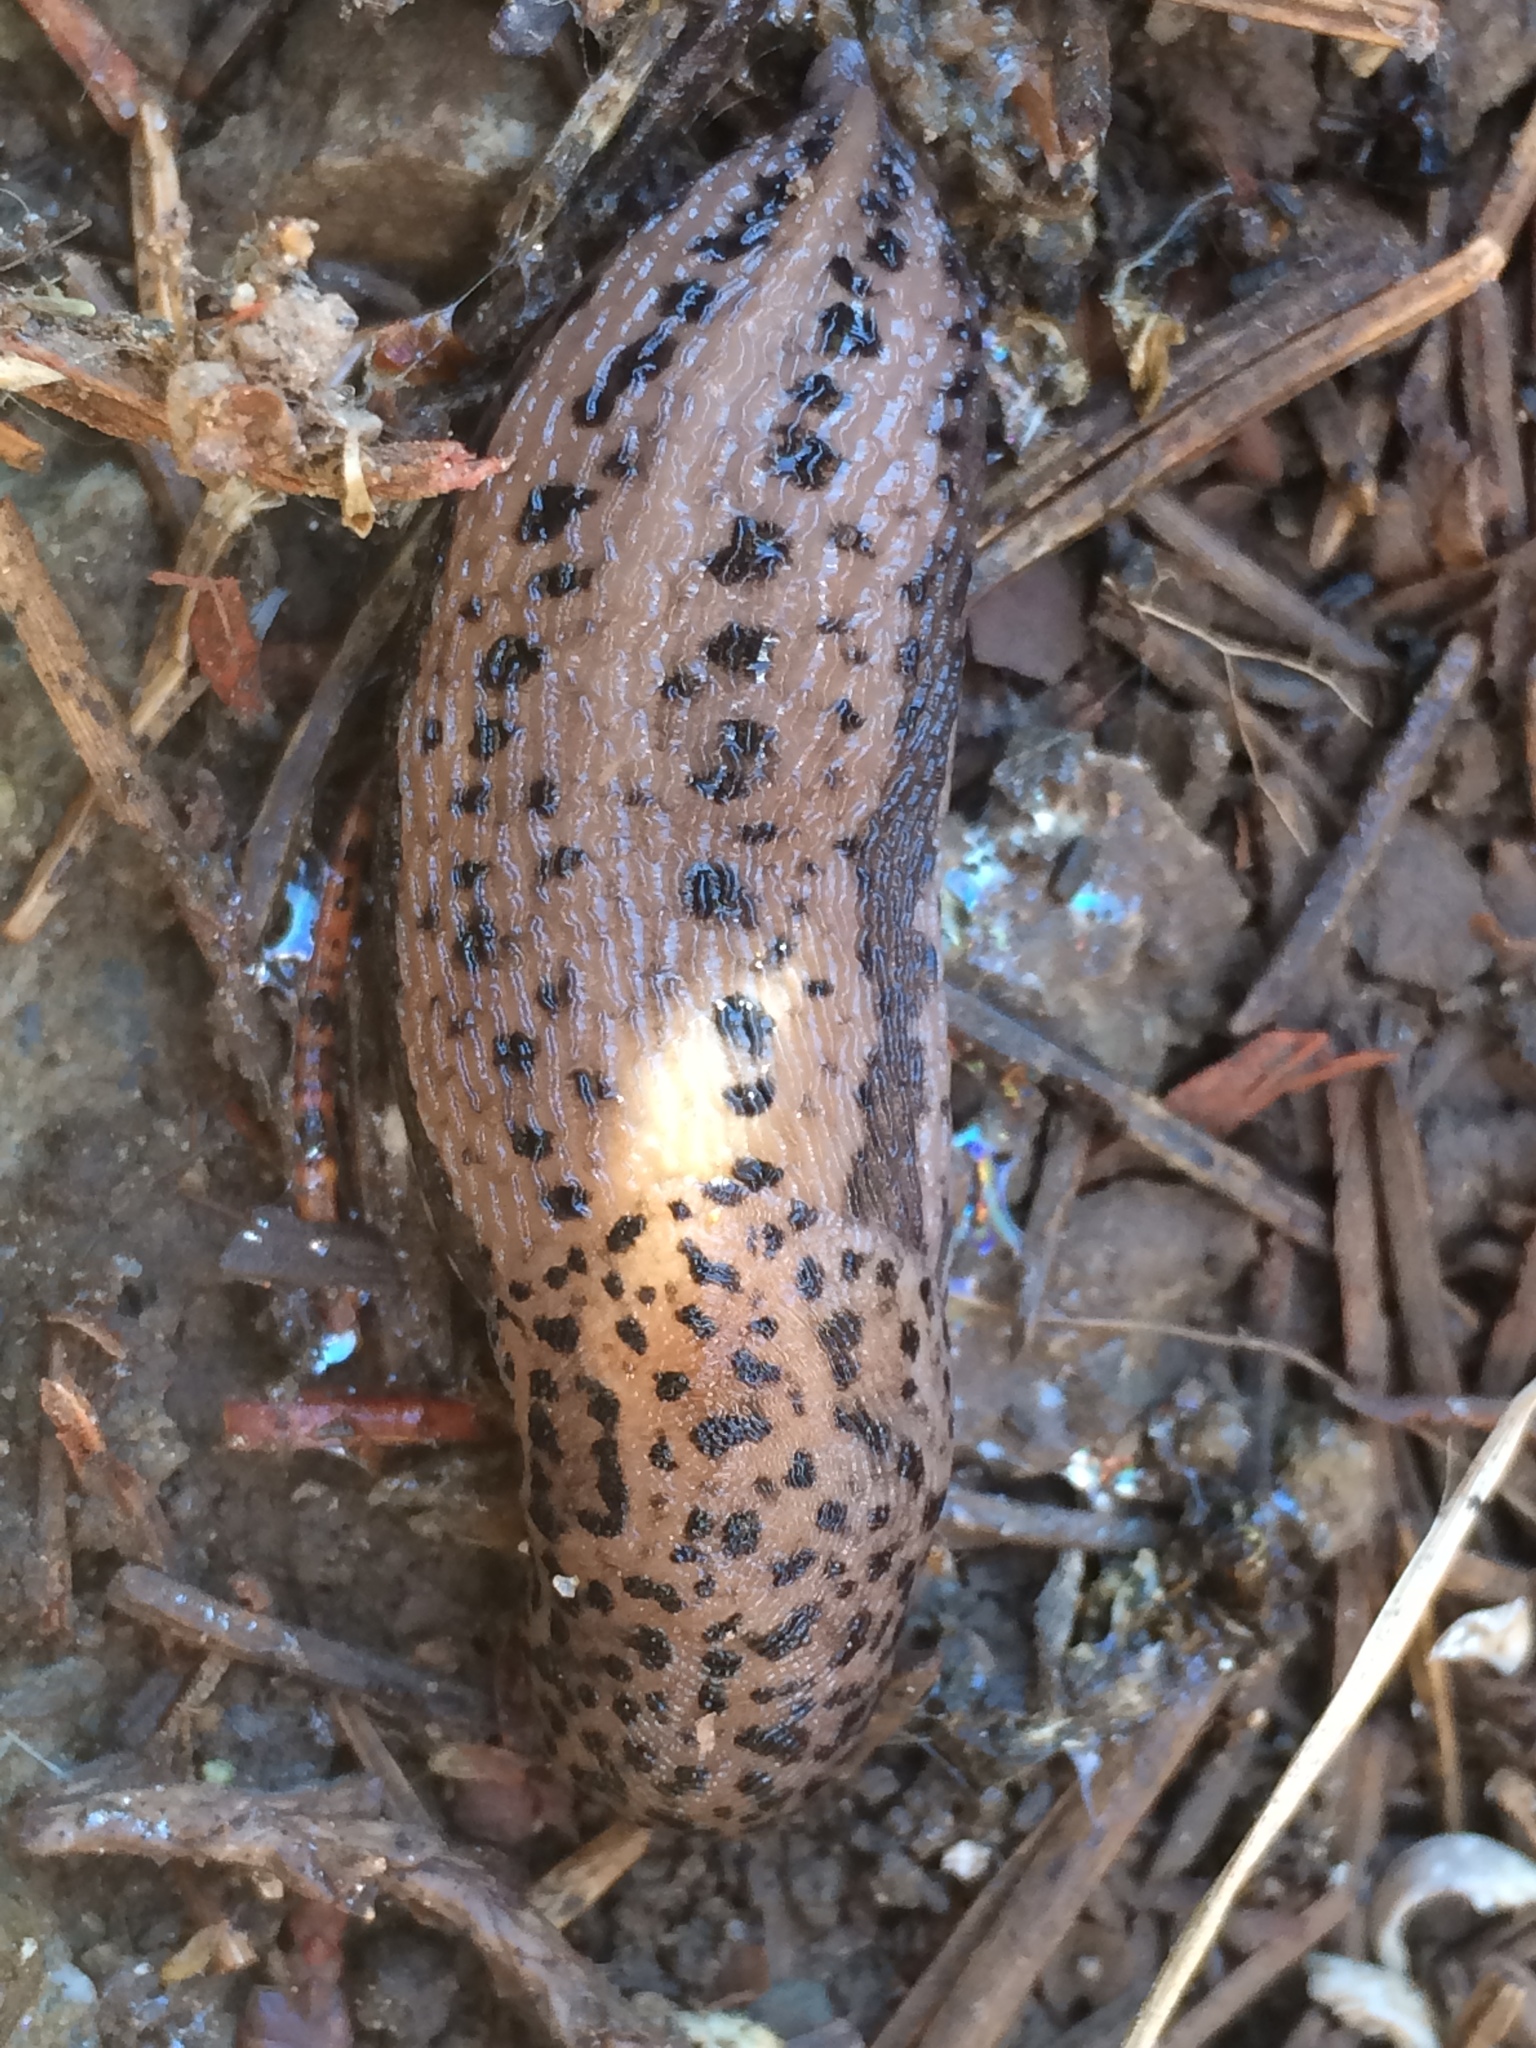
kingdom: Animalia
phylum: Mollusca
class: Gastropoda
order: Stylommatophora
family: Limacidae
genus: Limax
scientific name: Limax maximus
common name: Great grey slug
